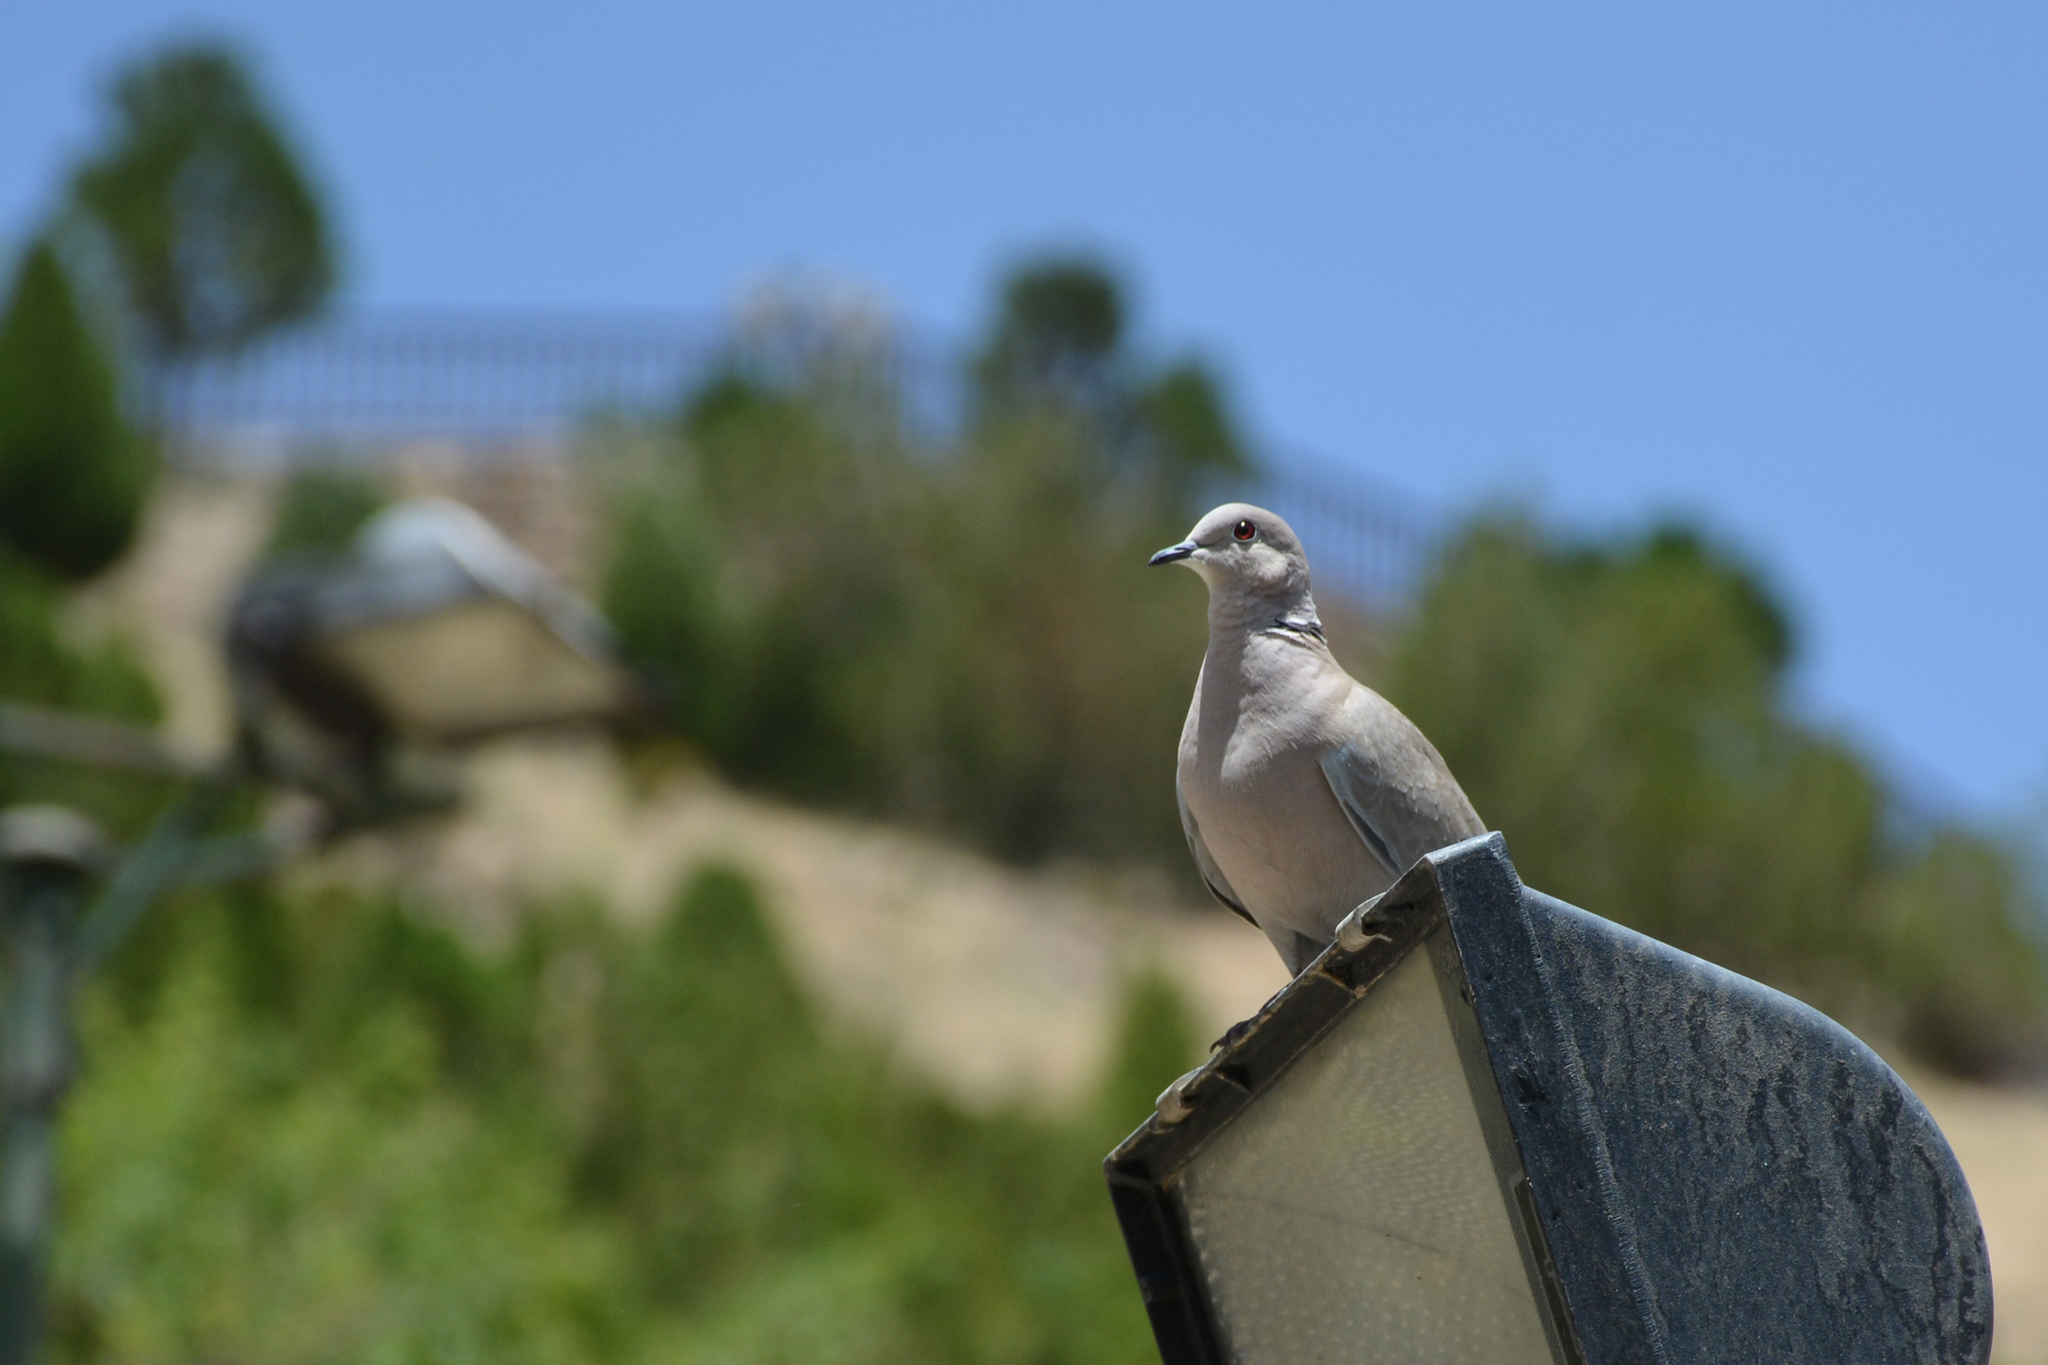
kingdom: Animalia
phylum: Chordata
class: Aves
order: Columbiformes
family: Columbidae
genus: Streptopelia
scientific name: Streptopelia decaocto
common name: Eurasian collared dove
